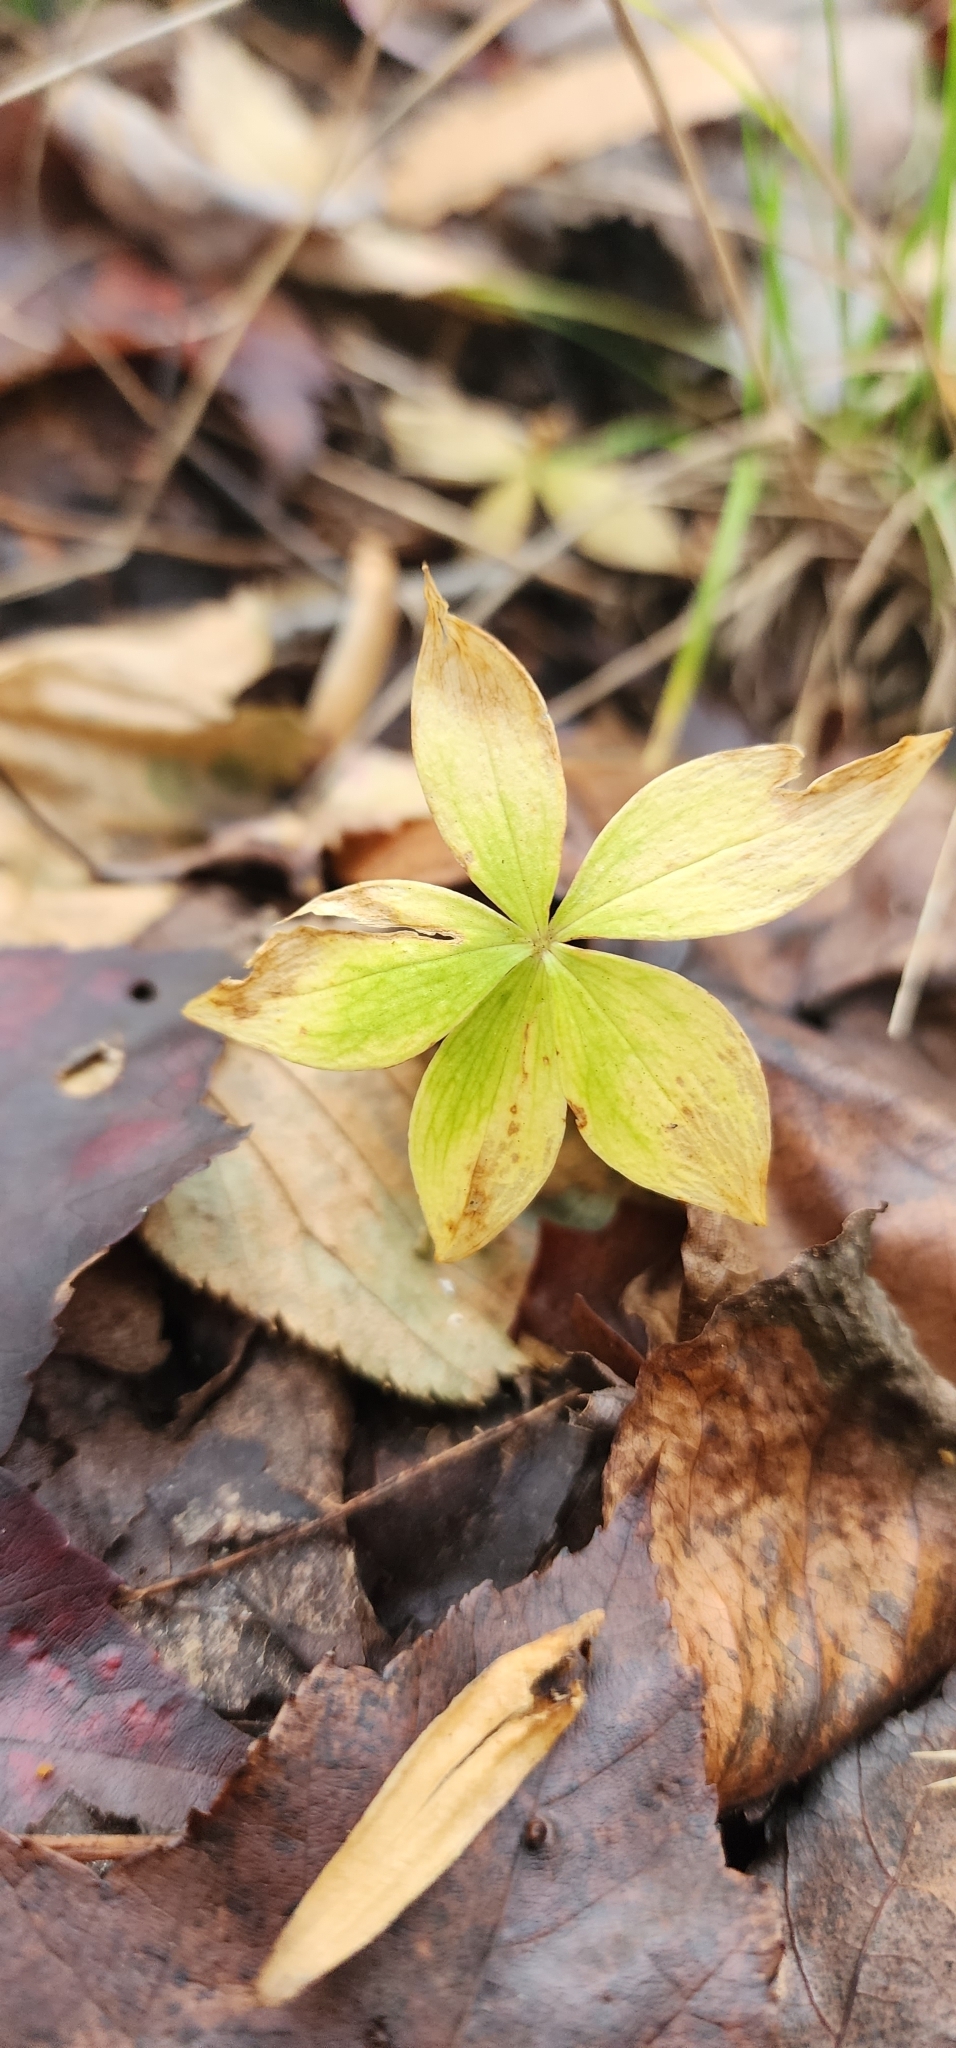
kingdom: Plantae
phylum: Tracheophyta
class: Liliopsida
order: Liliales
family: Liliaceae
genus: Medeola
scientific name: Medeola virginiana
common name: Indian cucumber-root
